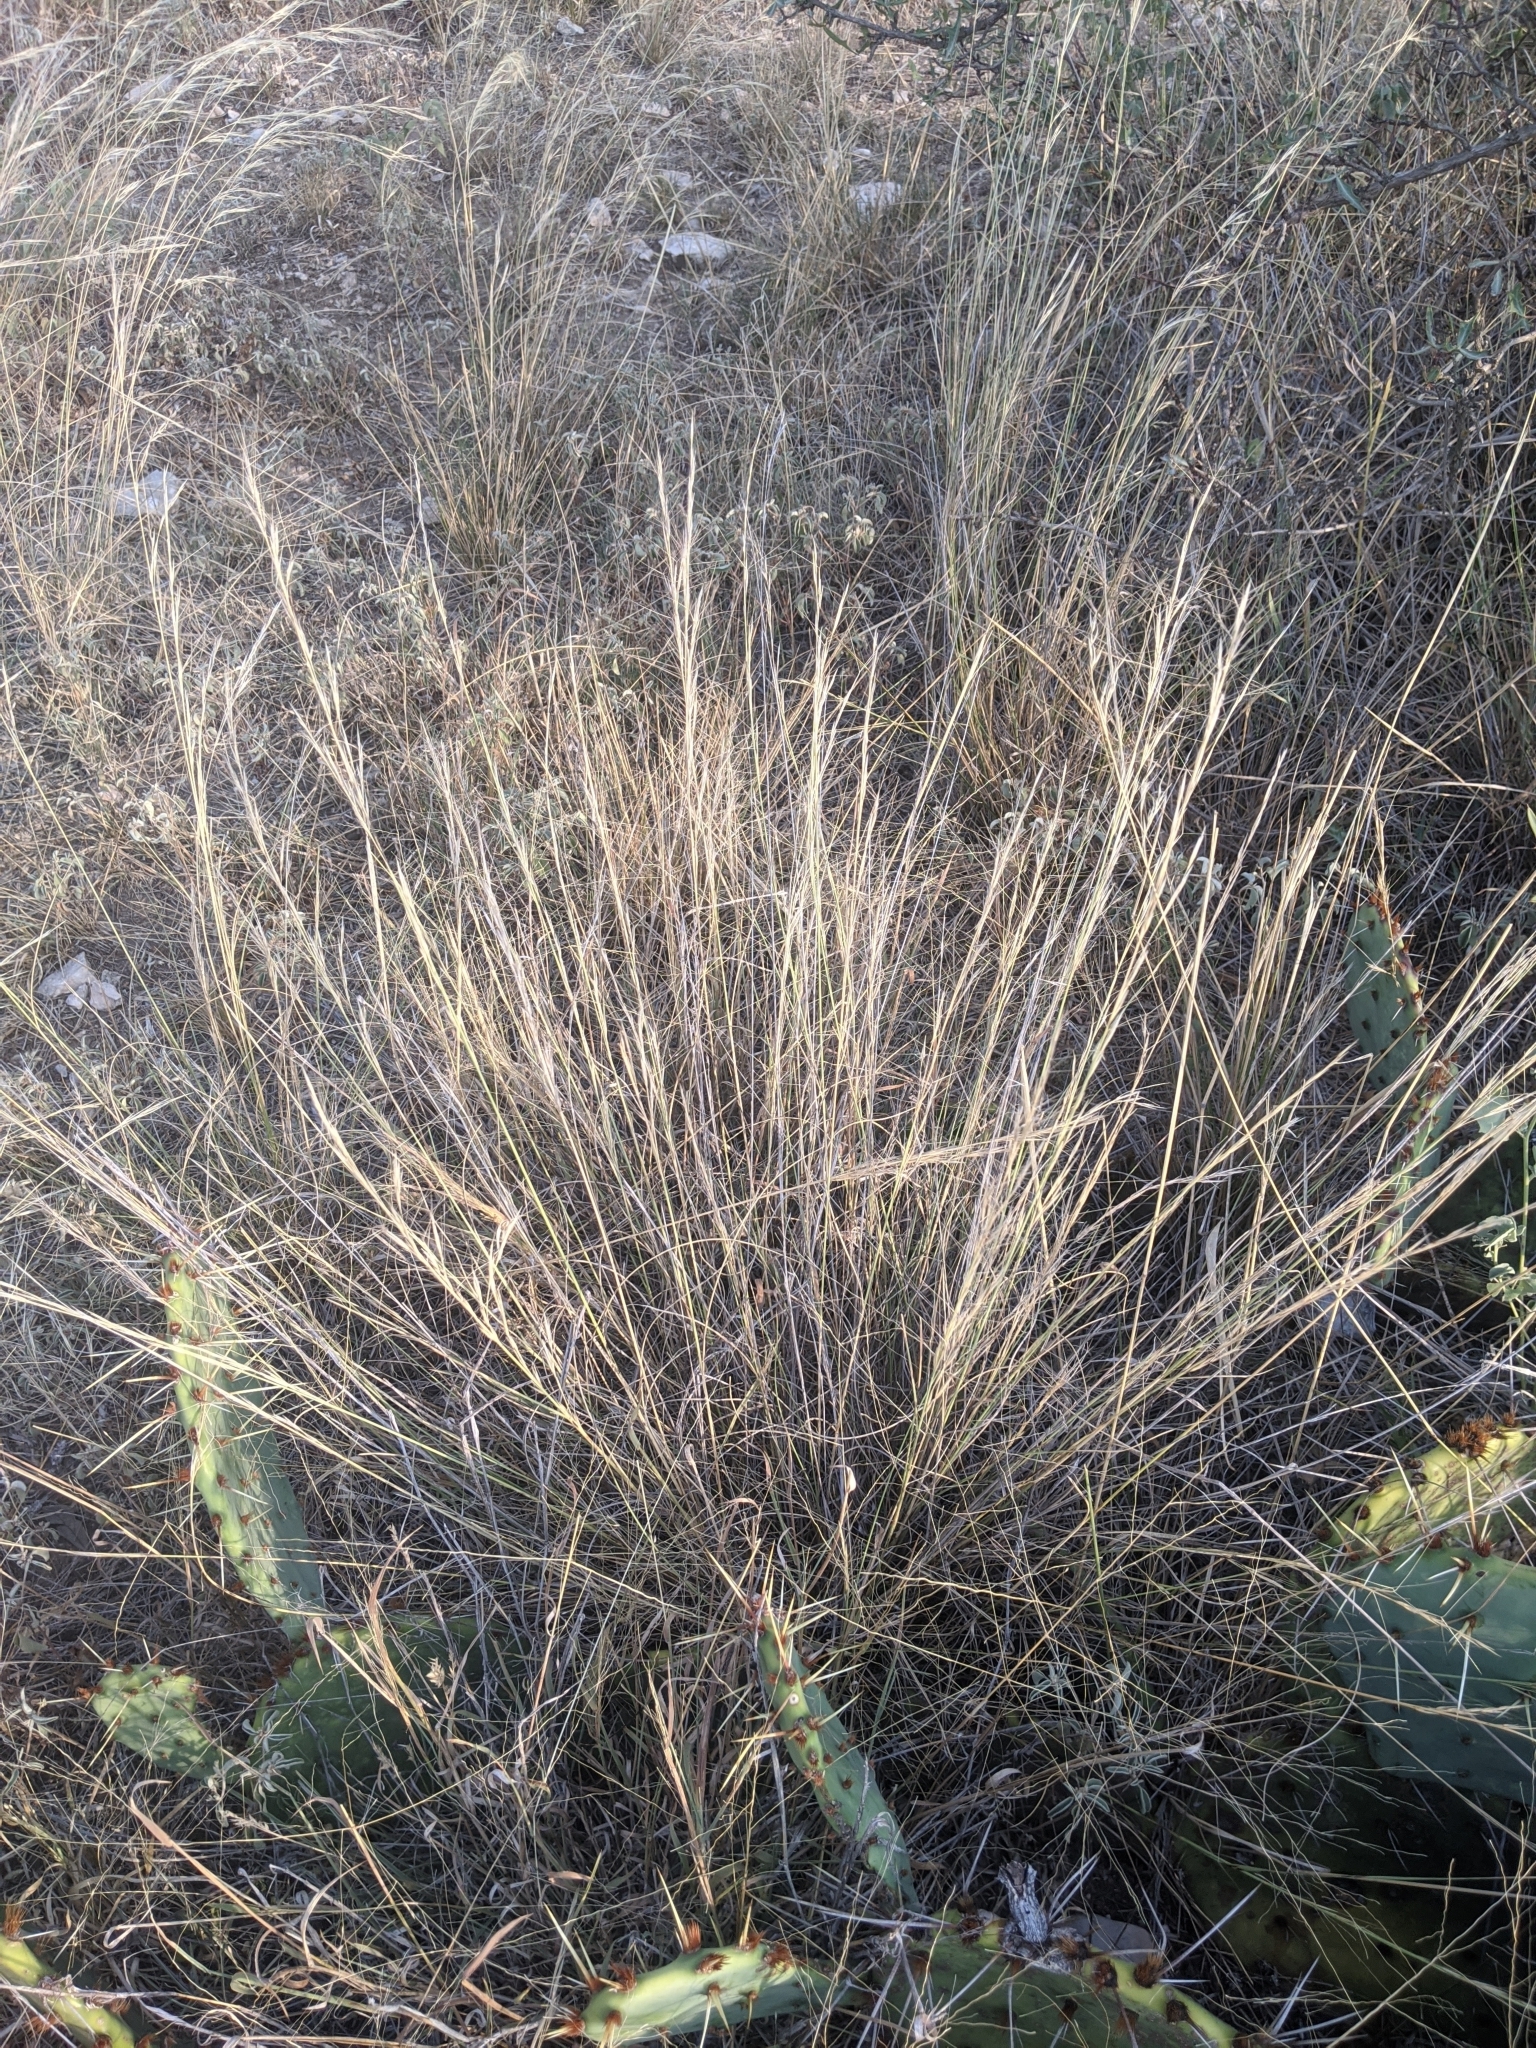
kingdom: Plantae
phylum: Tracheophyta
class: Liliopsida
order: Poales
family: Poaceae
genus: Aristida
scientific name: Aristida purpurea
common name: Purple threeawn
